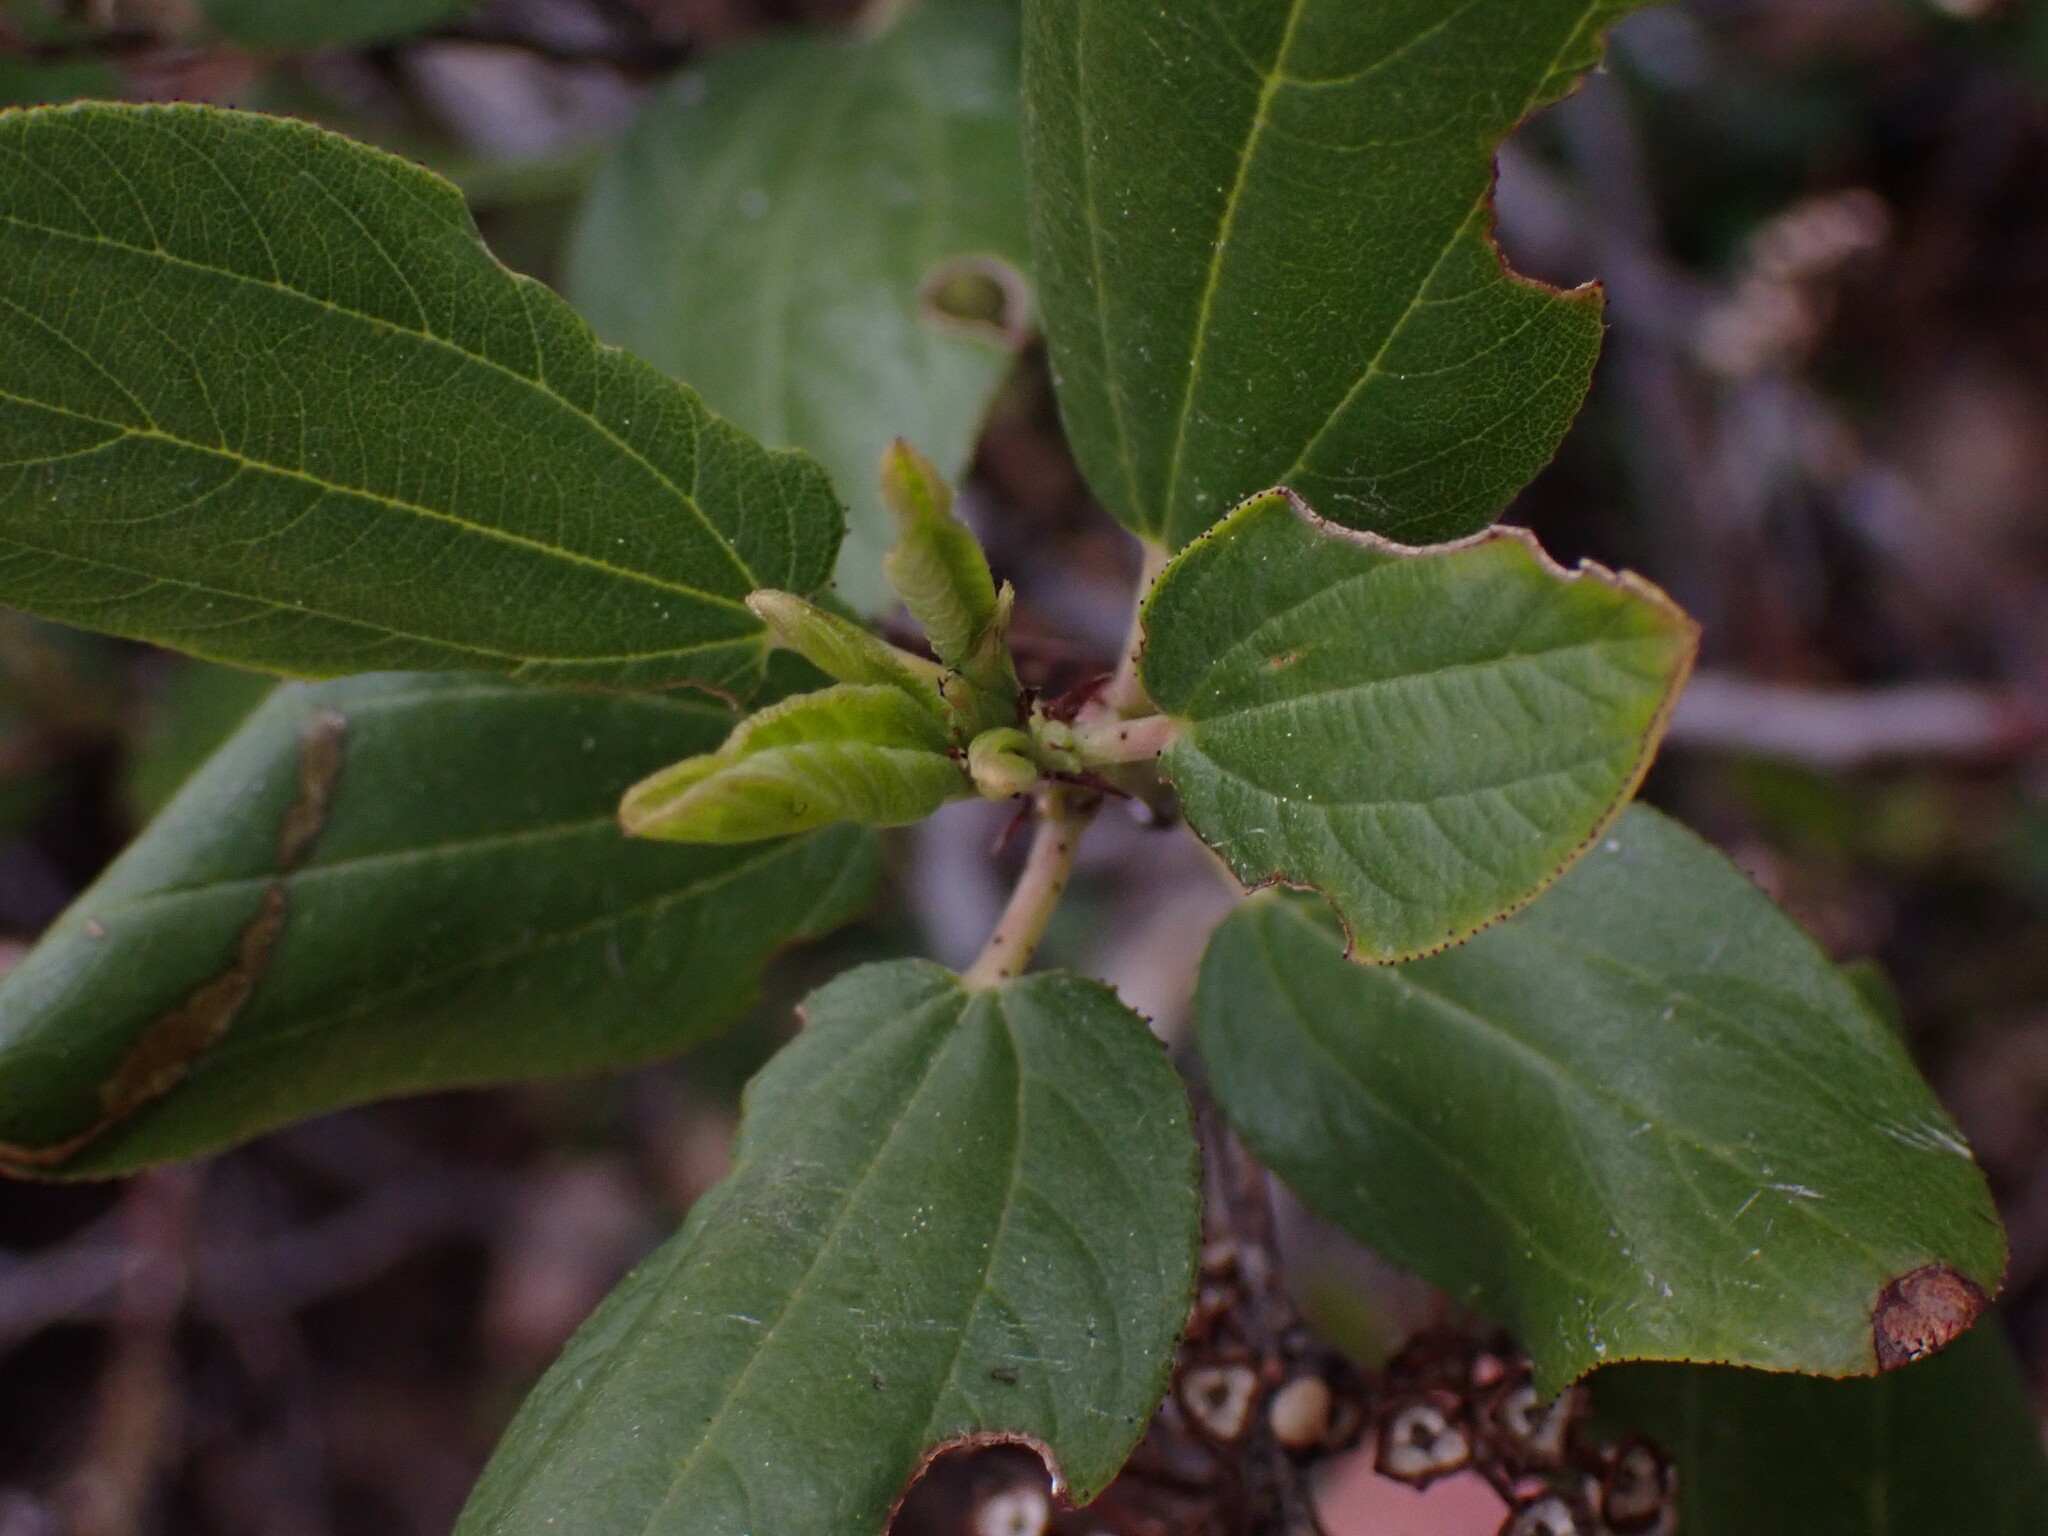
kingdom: Plantae
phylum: Tracheophyta
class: Magnoliopsida
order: Rosales
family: Rhamnaceae
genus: Ceanothus
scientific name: Ceanothus velutinus
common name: Snowbrush
